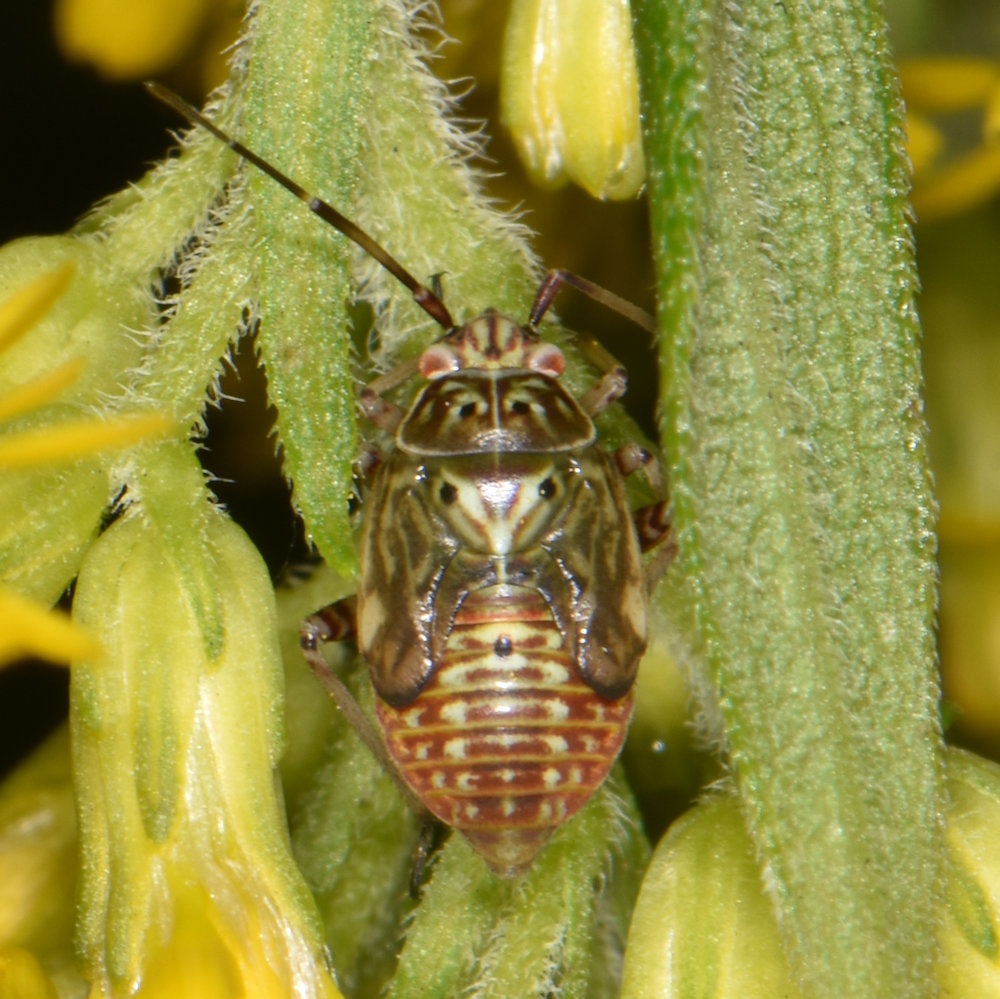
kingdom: Animalia
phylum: Arthropoda
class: Insecta
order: Hemiptera
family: Miridae
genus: Lygus
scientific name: Lygus lineolaris
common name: North american tarnished plant bug
